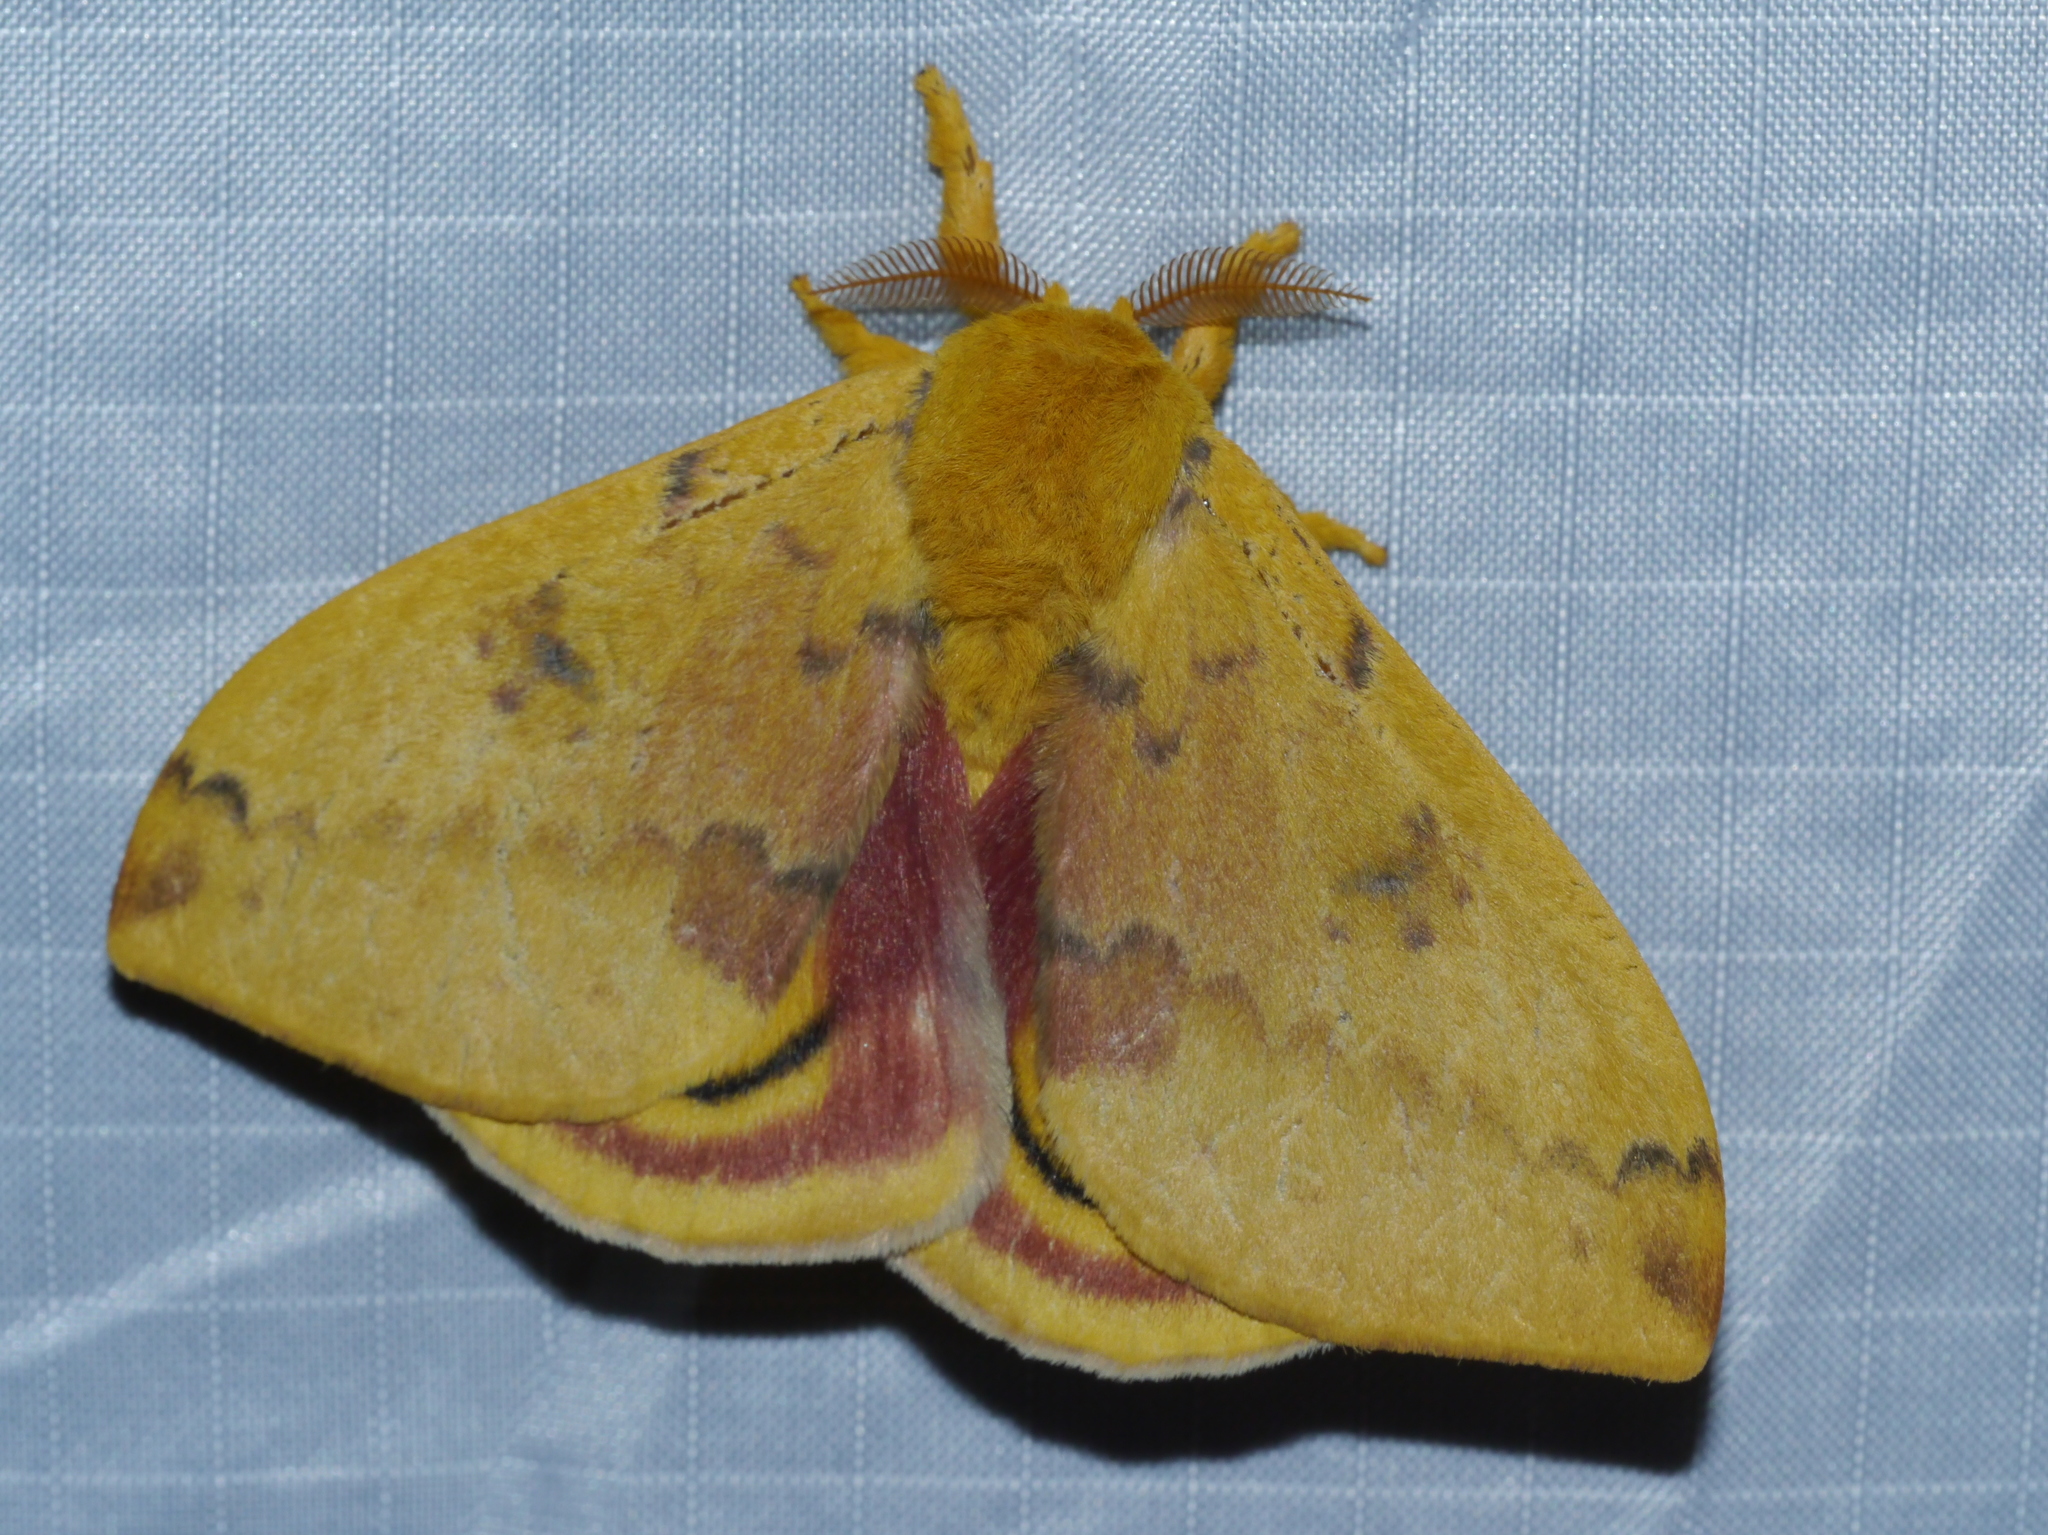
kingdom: Animalia
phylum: Arthropoda
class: Insecta
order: Lepidoptera
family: Saturniidae
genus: Automeris
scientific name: Automeris io
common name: Io moth
